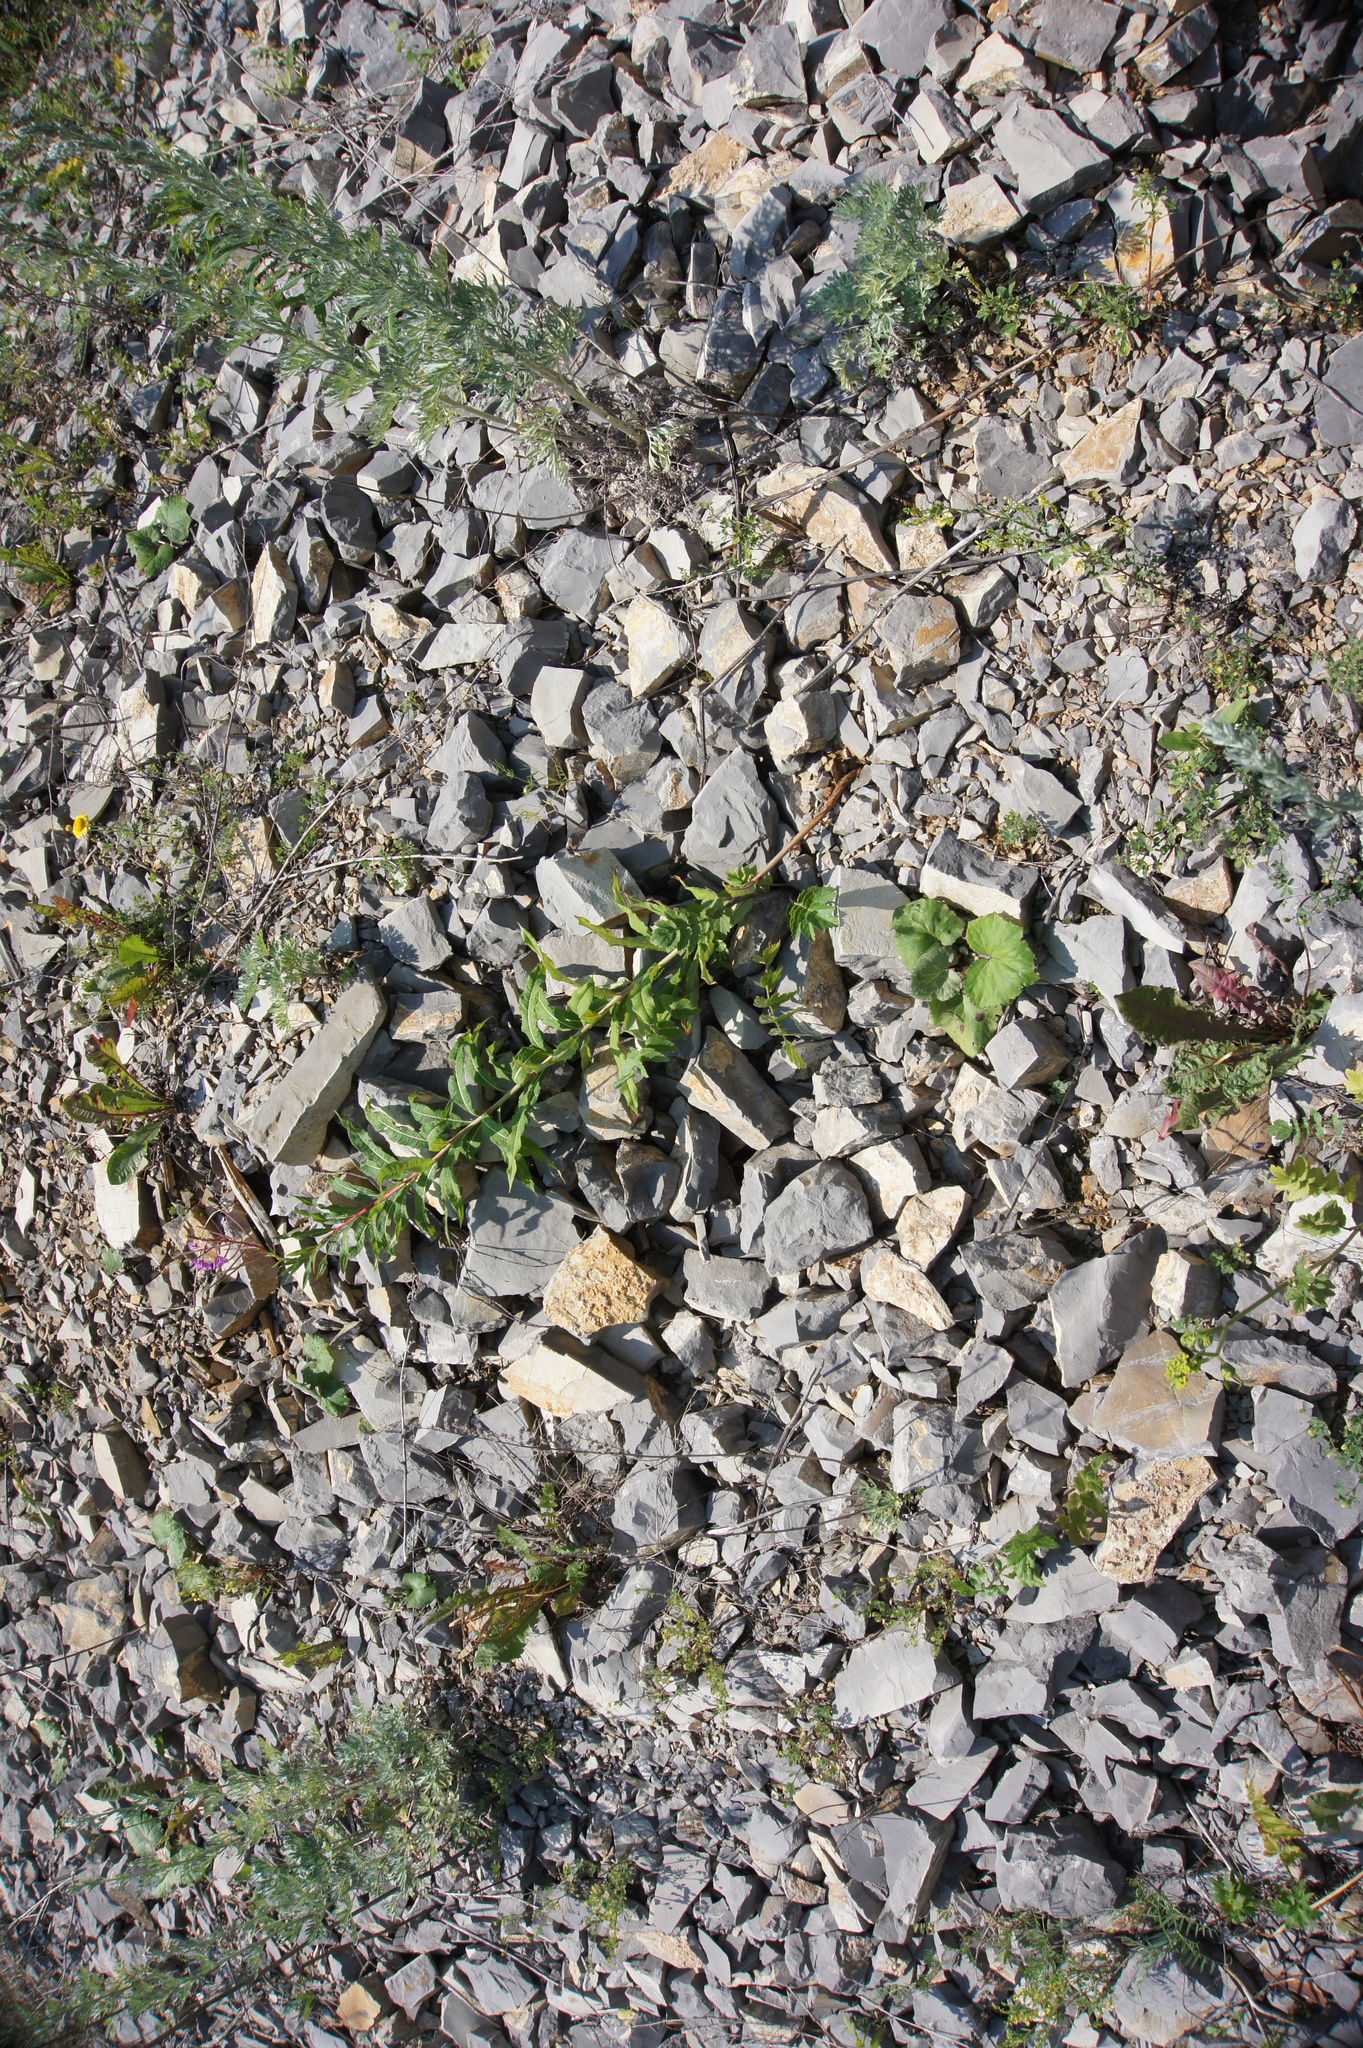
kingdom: Plantae
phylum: Tracheophyta
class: Magnoliopsida
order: Asterales
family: Asteraceae
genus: Tussilago
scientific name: Tussilago farfara
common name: Coltsfoot
